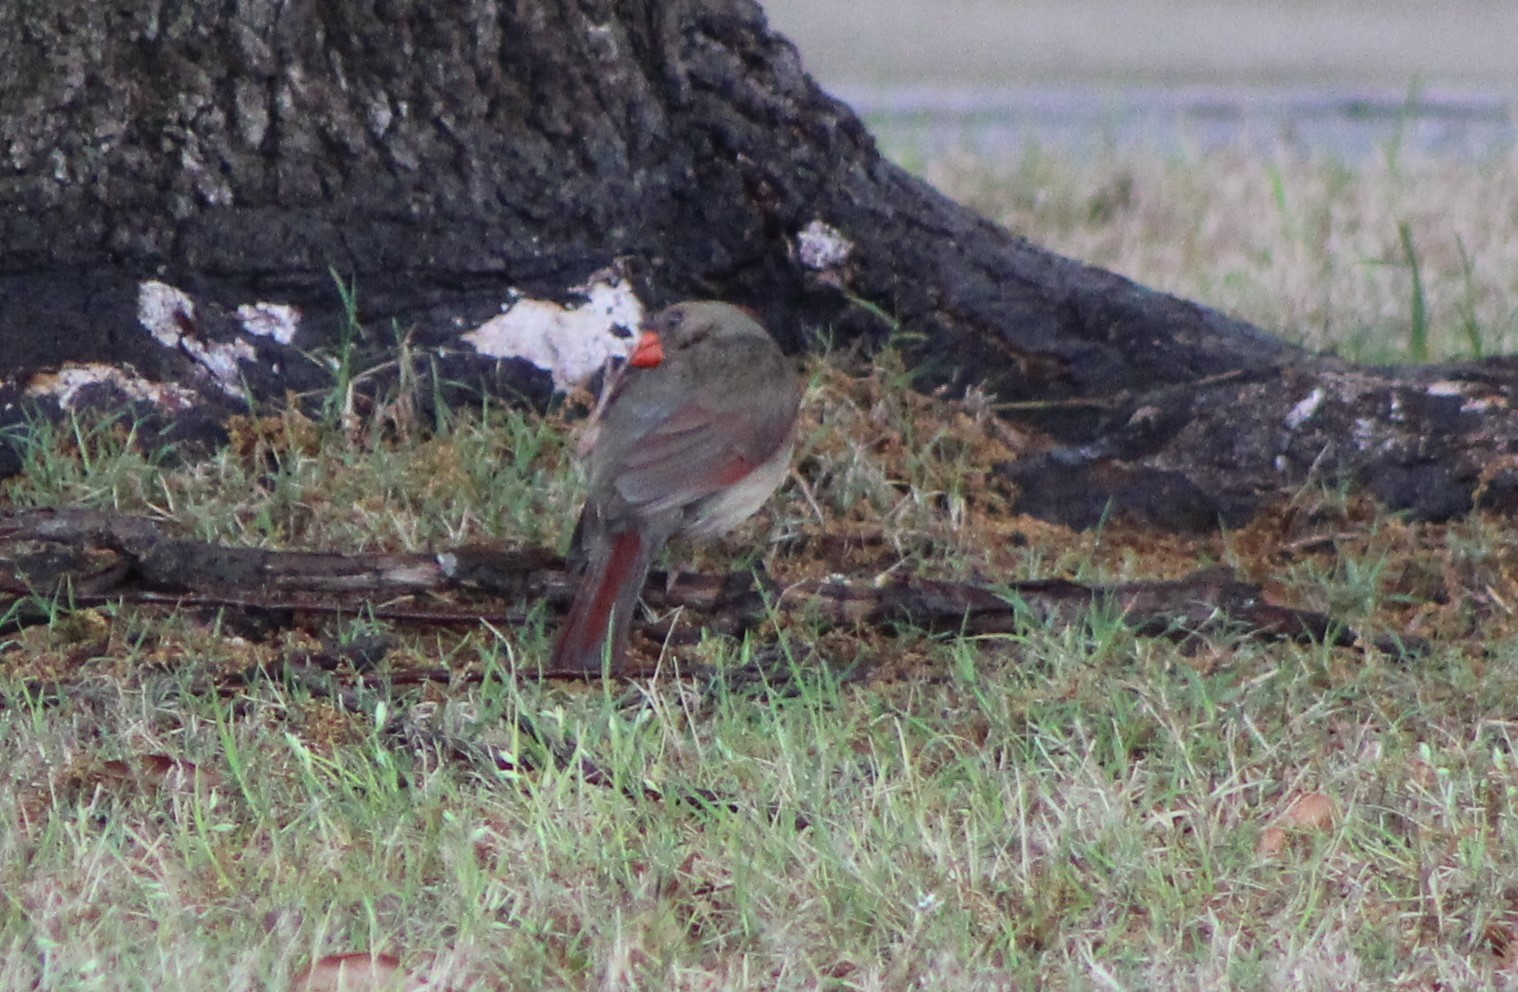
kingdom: Animalia
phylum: Chordata
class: Aves
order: Passeriformes
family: Cardinalidae
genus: Cardinalis
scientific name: Cardinalis cardinalis
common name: Northern cardinal
